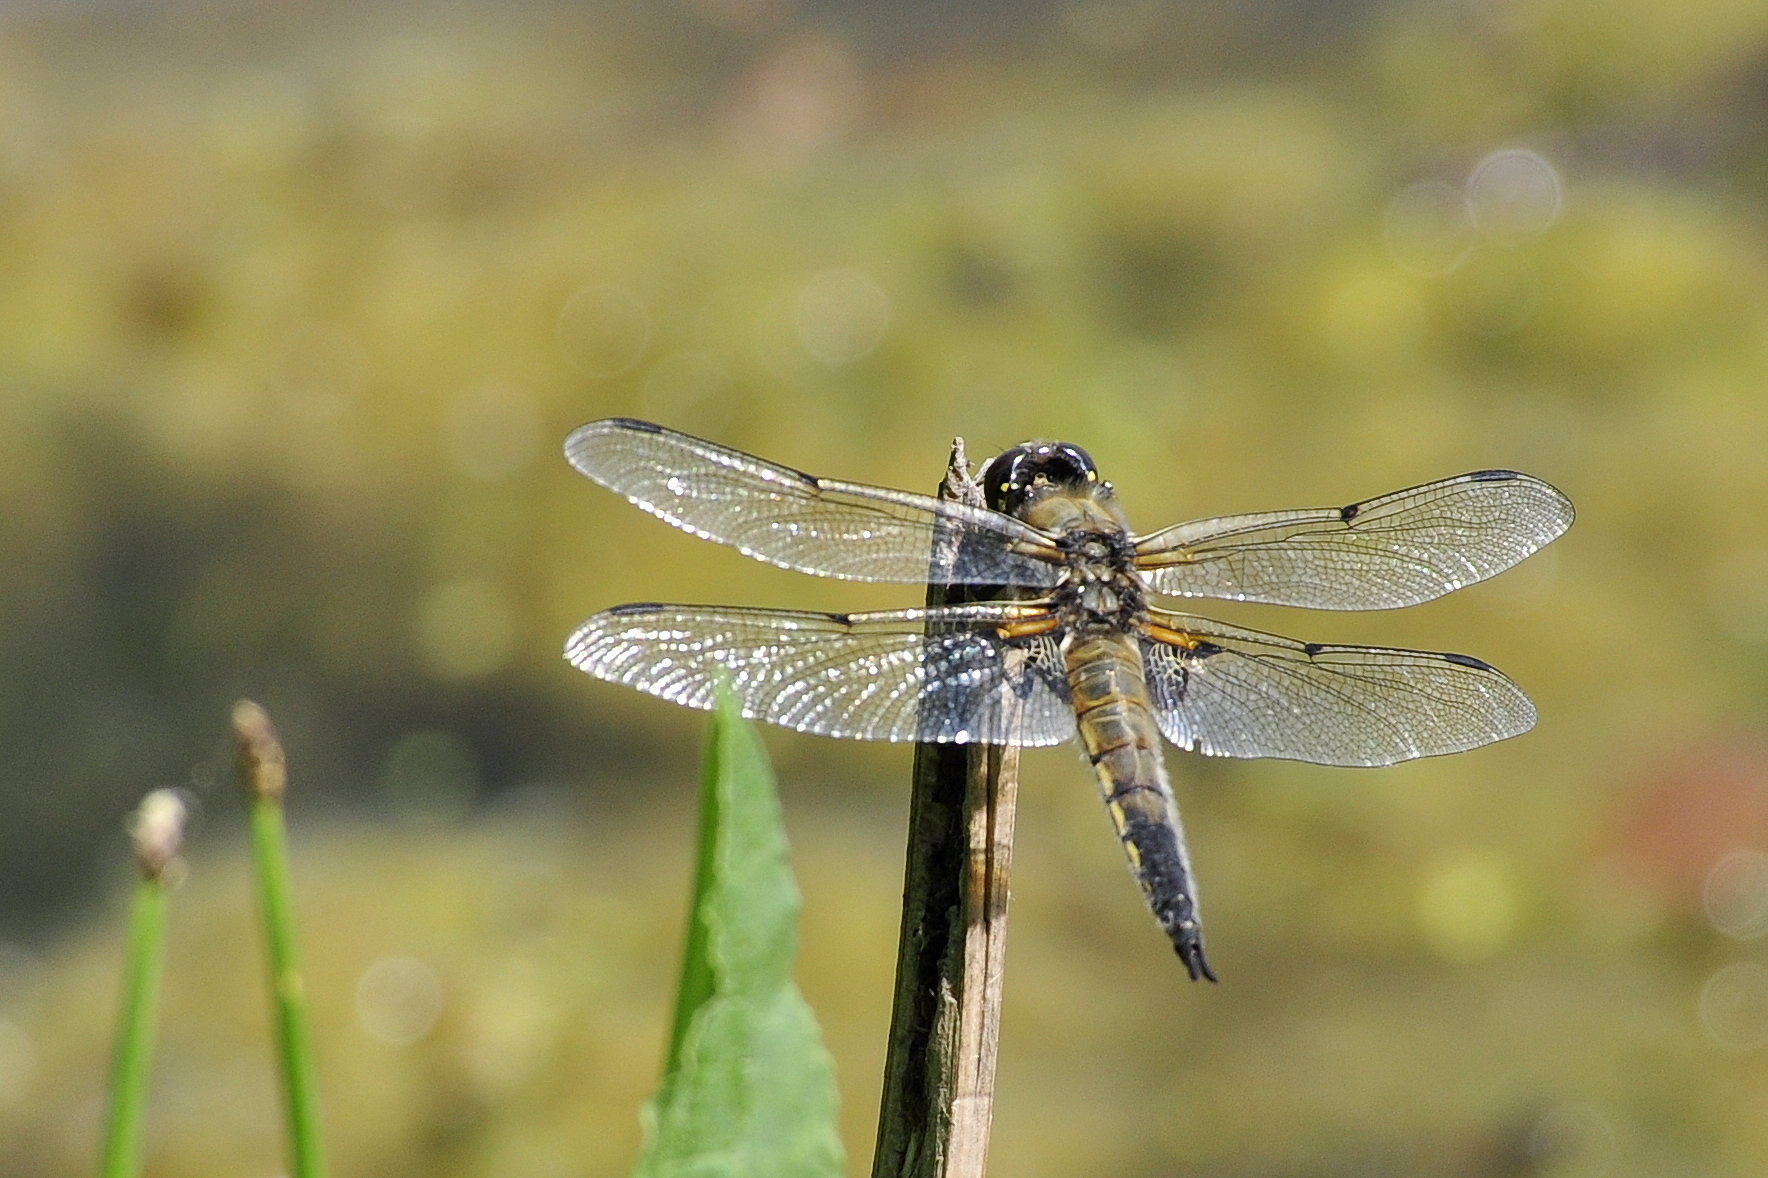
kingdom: Animalia
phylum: Arthropoda
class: Insecta
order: Odonata
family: Libellulidae
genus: Libellula
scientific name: Libellula quadrimaculata
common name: Four-spotted chaser
